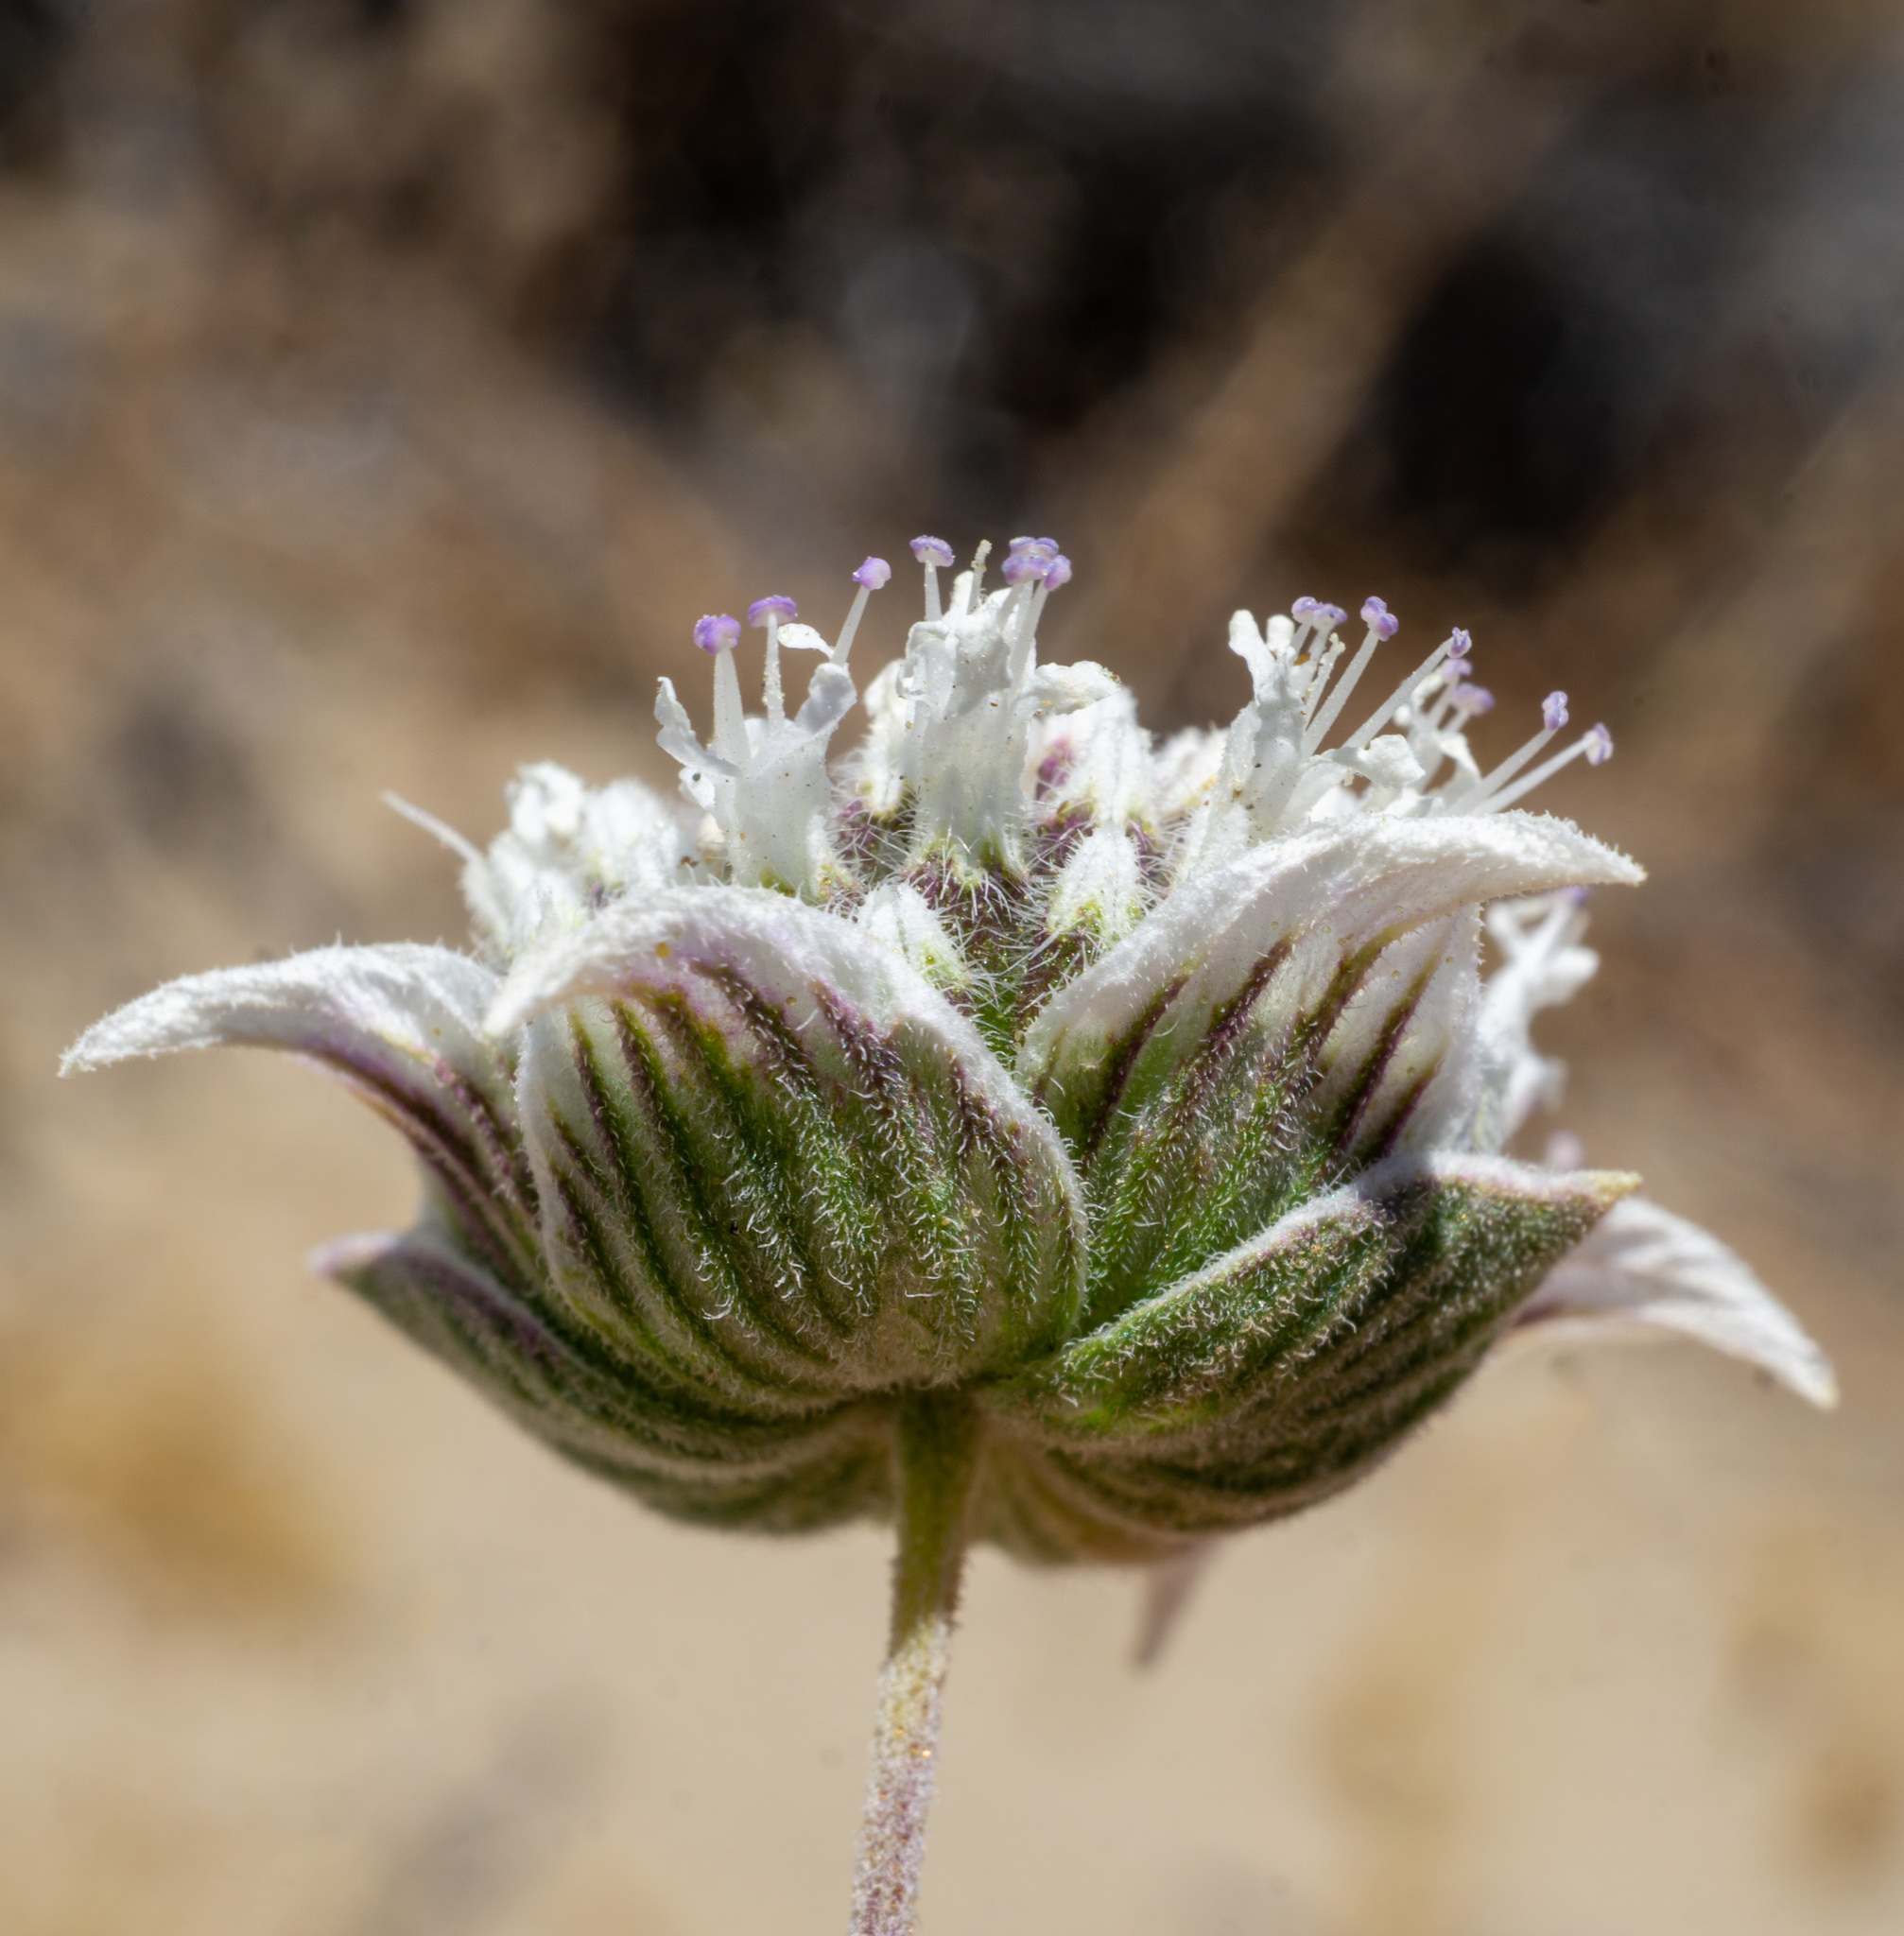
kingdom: Plantae
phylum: Tracheophyta
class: Magnoliopsida
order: Lamiales
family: Lamiaceae
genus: Monardella
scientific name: Monardella exilis
